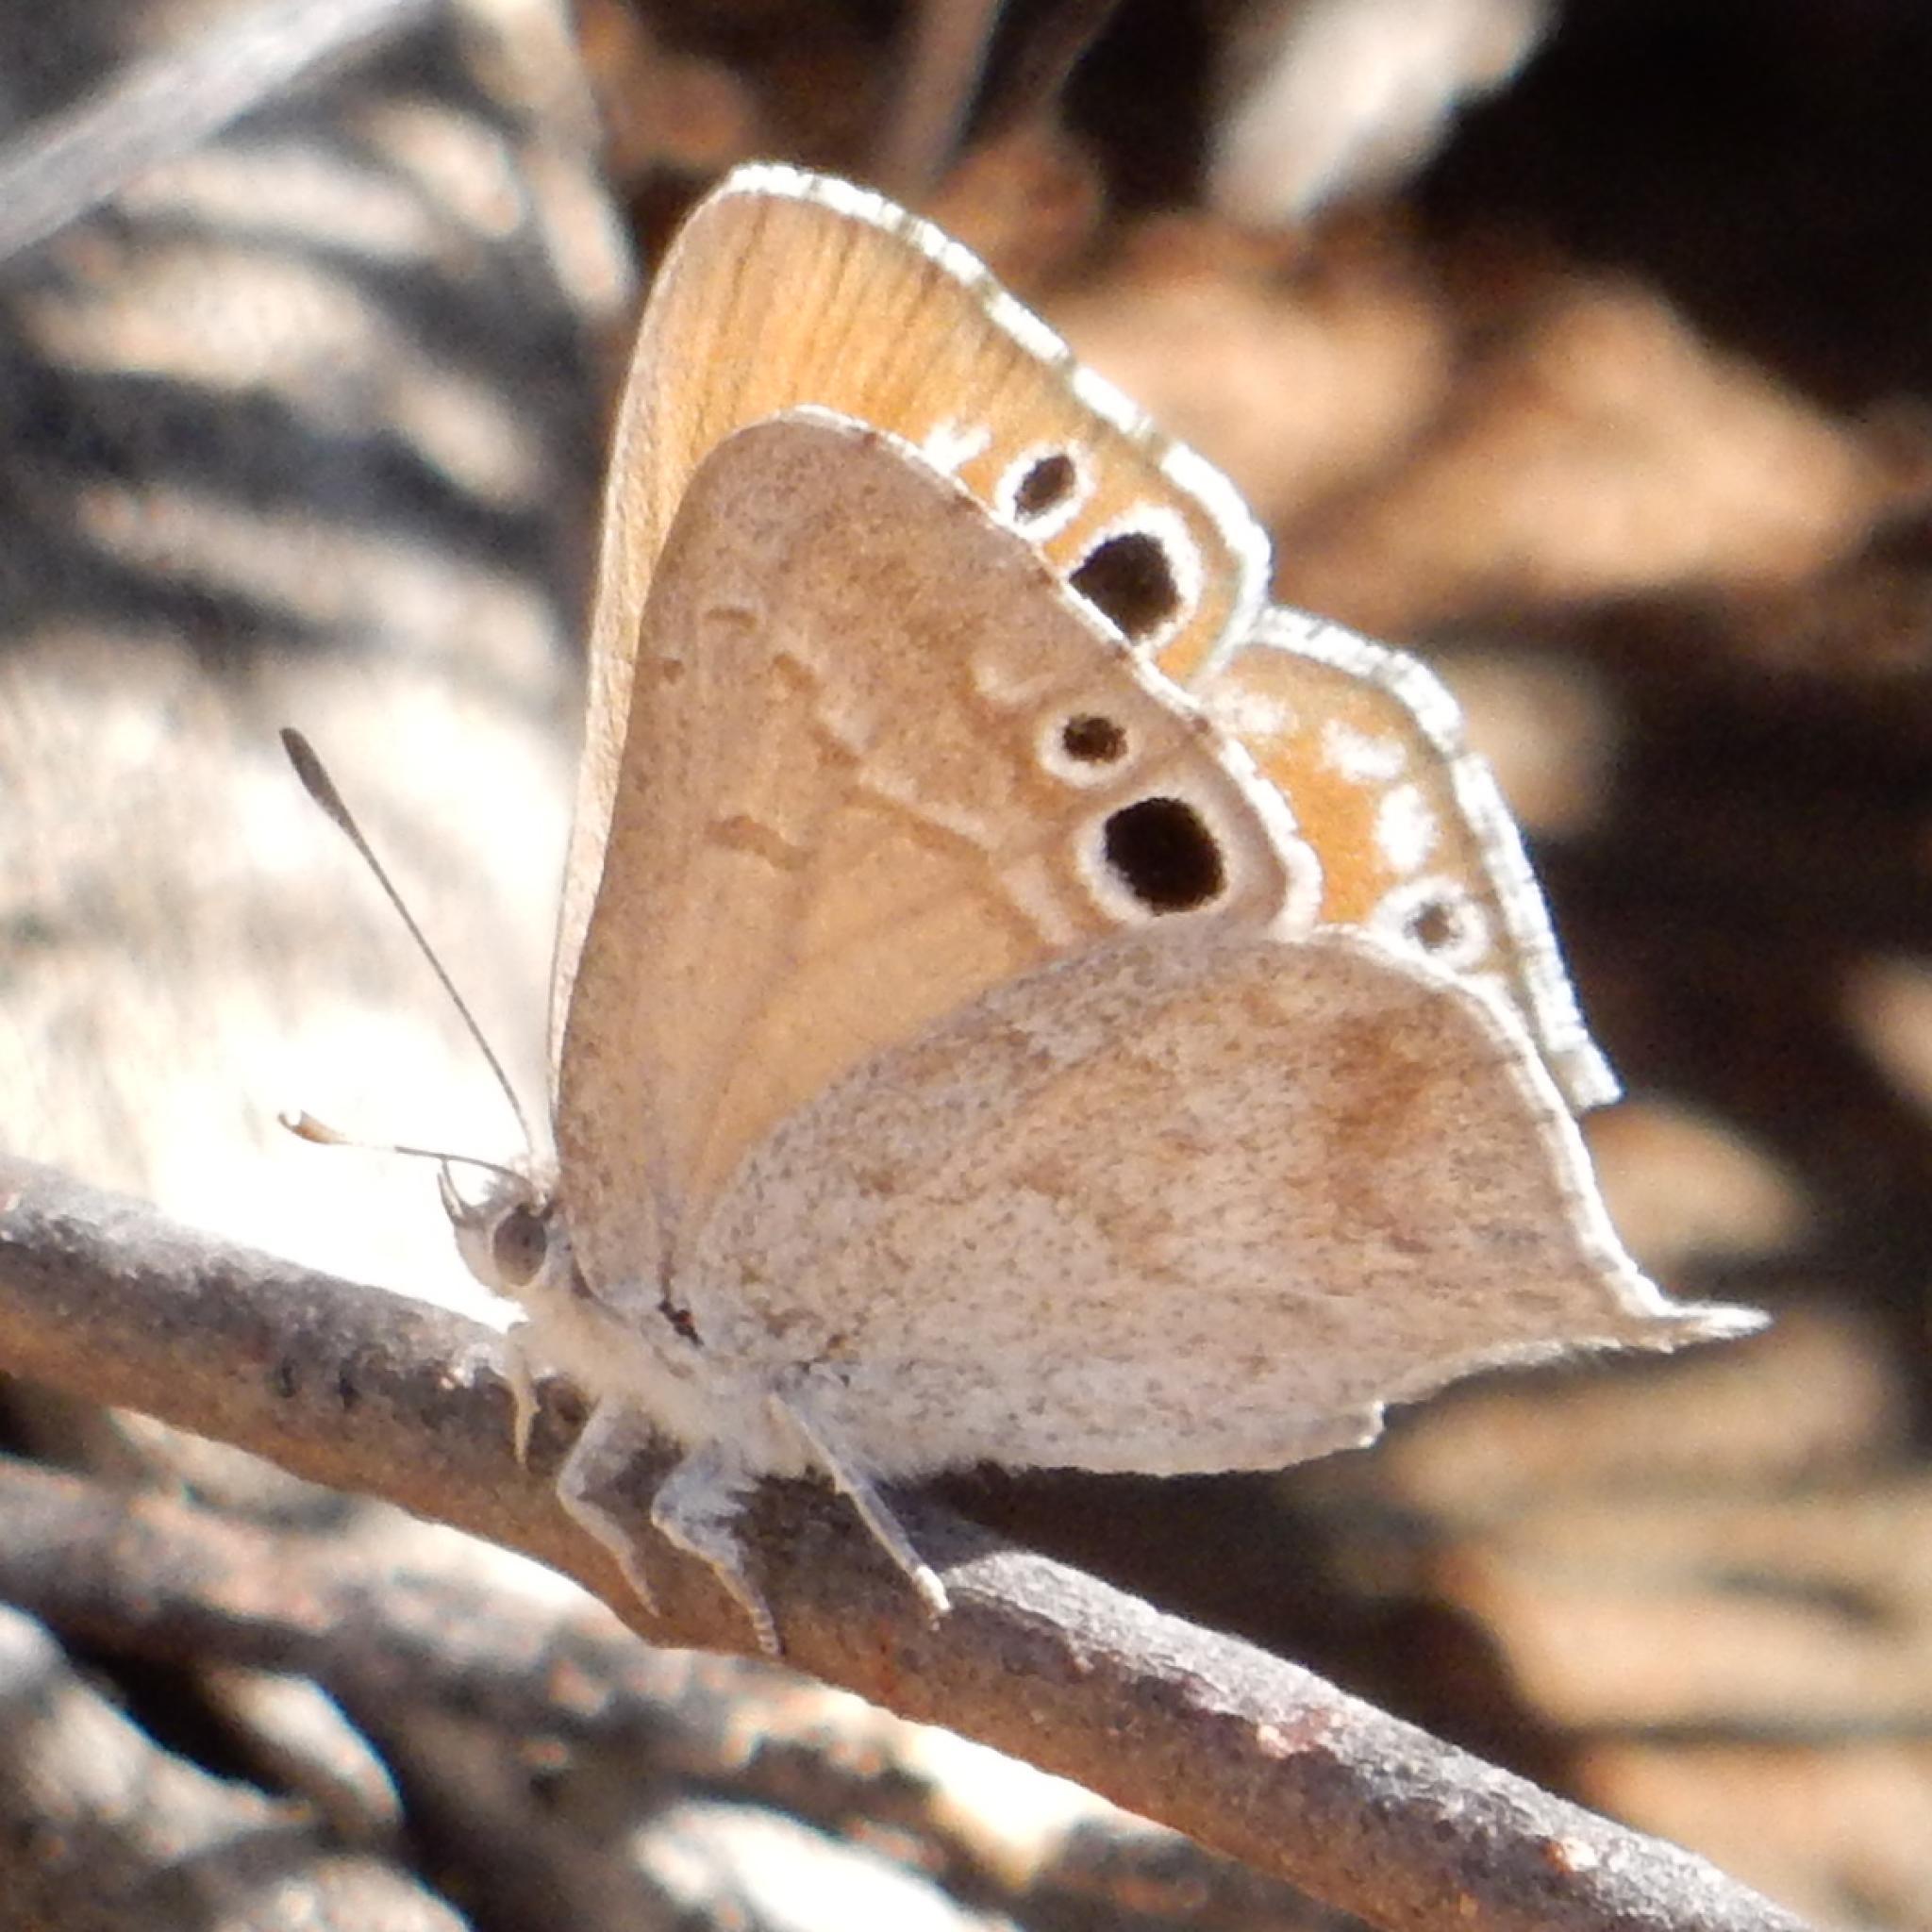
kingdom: Animalia
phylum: Arthropoda
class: Insecta
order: Lepidoptera
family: Lycaenidae
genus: Leptomyrina
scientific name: Leptomyrina henningi
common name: Henning's black-eye
